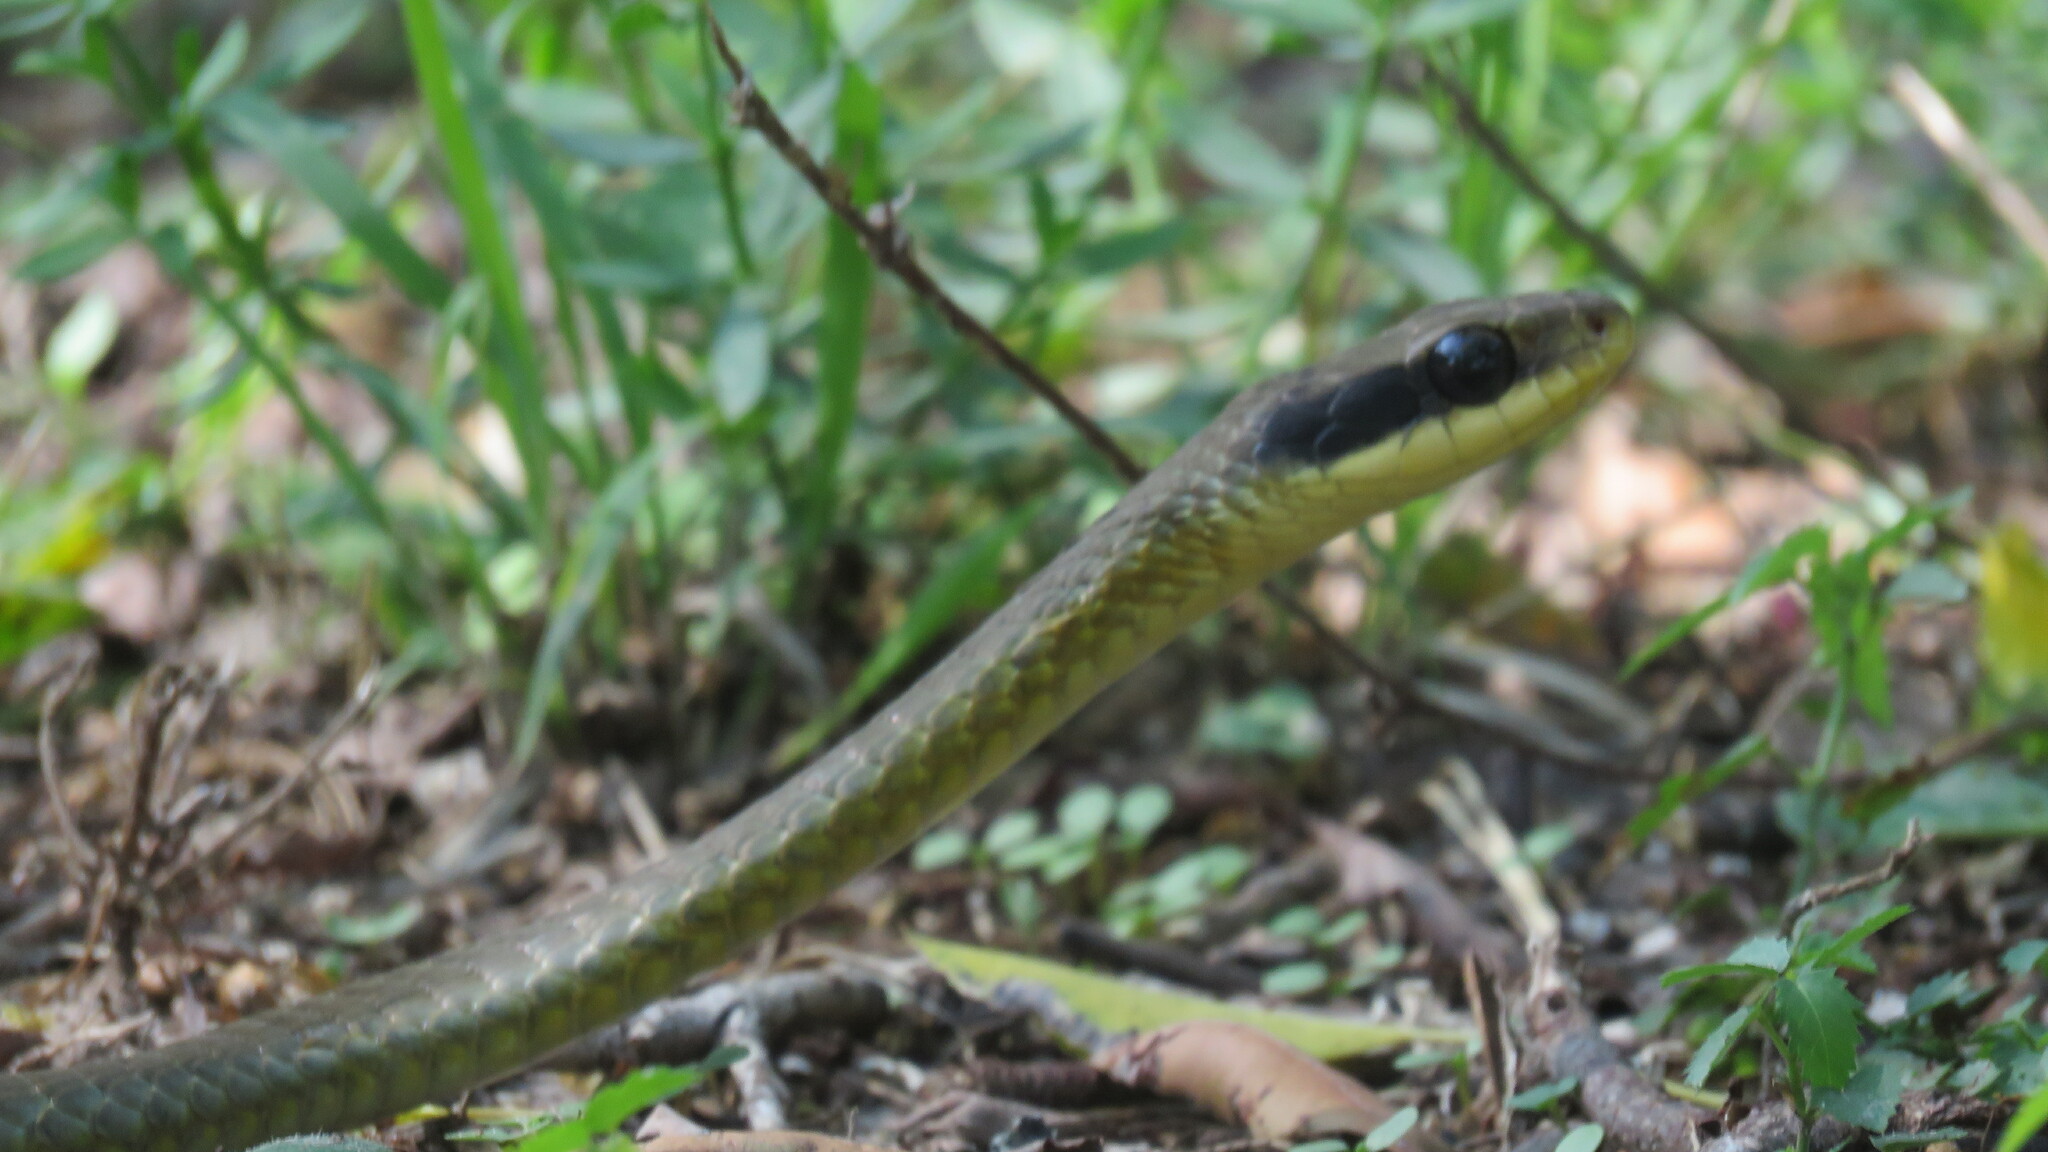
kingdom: Animalia
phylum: Chordata
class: Squamata
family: Colubridae
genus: Chironius
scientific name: Chironius quadricarinatus
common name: Central sipo
